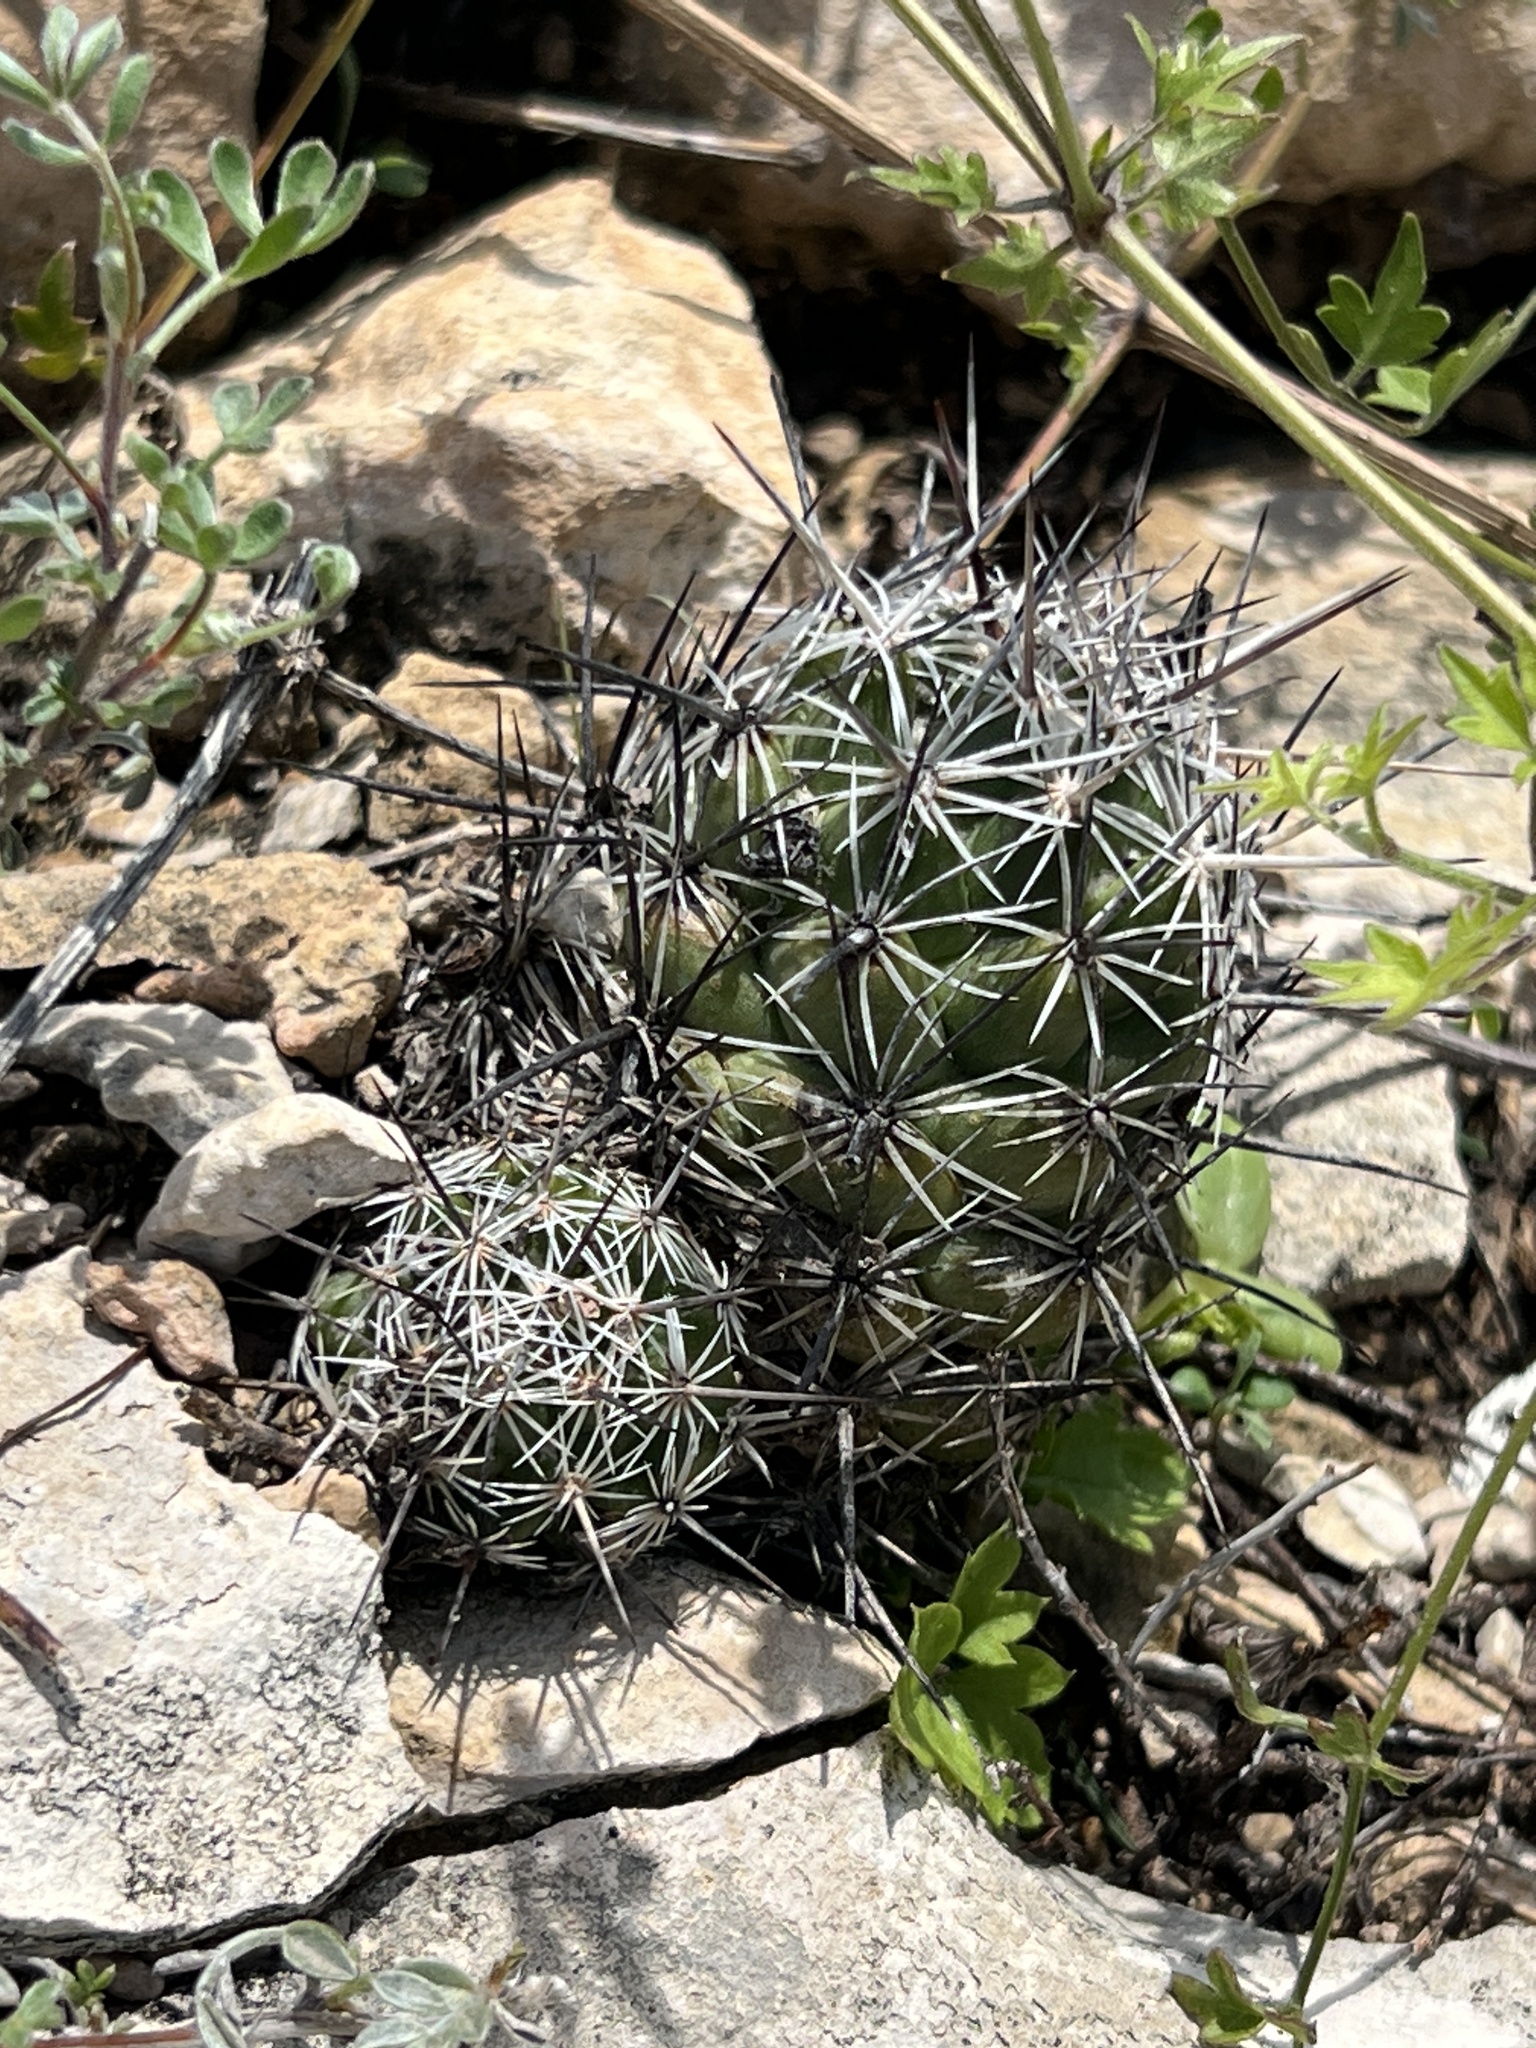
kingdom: Plantae
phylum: Tracheophyta
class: Magnoliopsida
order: Caryophyllales
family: Cactaceae
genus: Cochemiea
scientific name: Cochemiea conoidea
